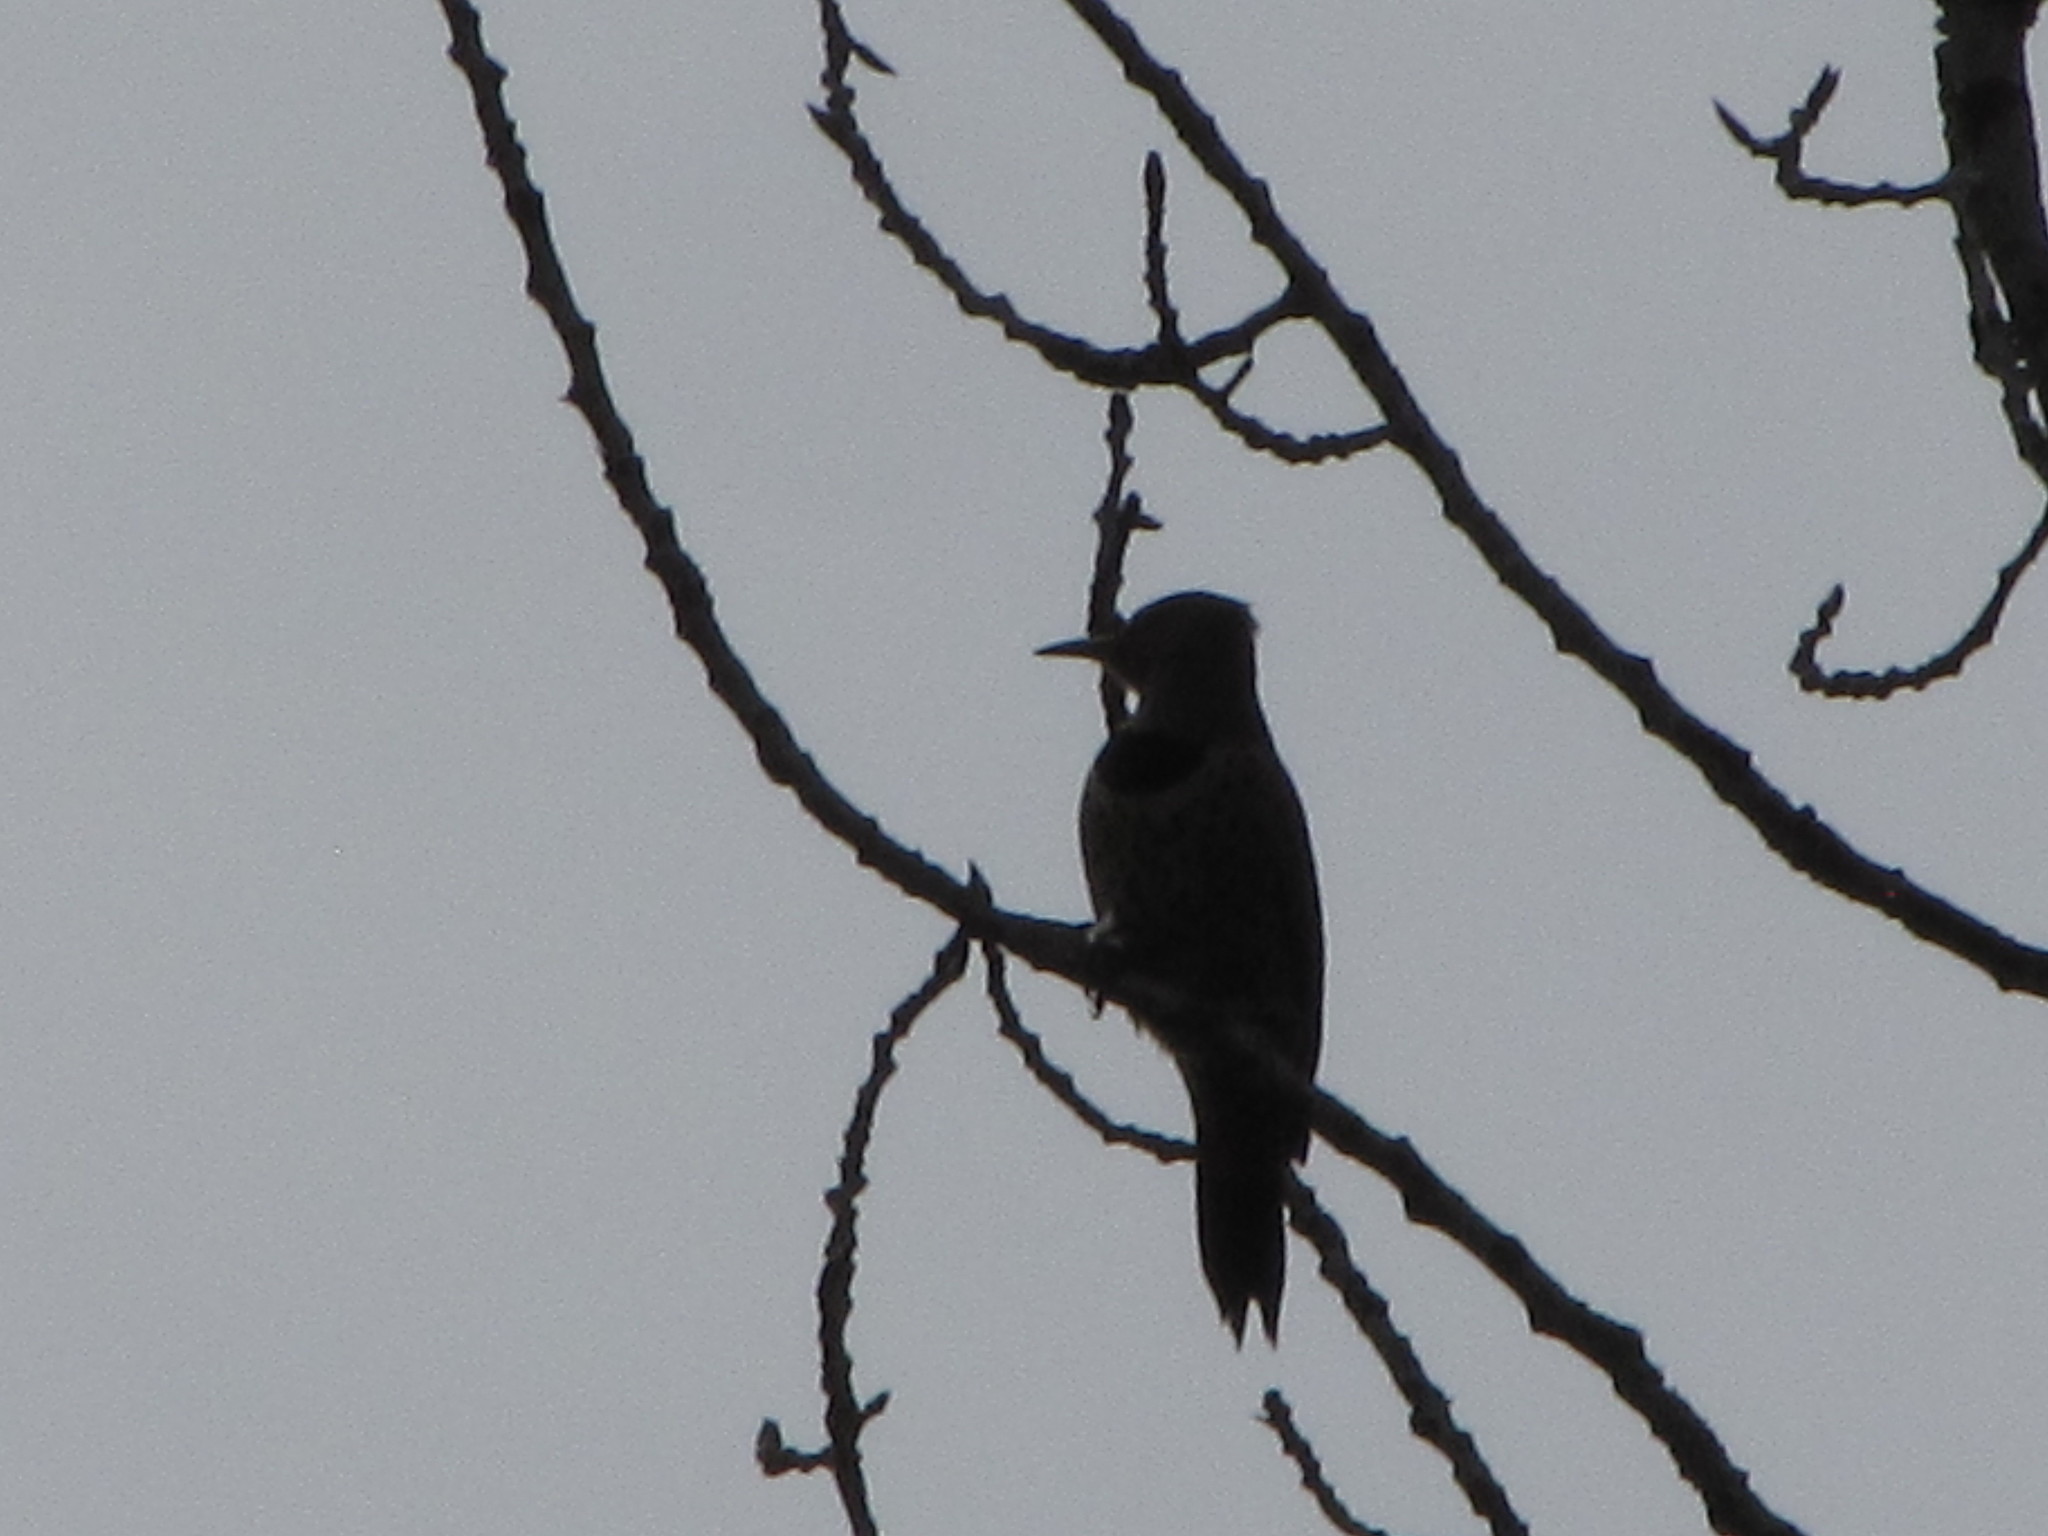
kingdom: Animalia
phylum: Chordata
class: Aves
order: Piciformes
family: Picidae
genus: Colaptes
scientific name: Colaptes auratus
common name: Northern flicker
